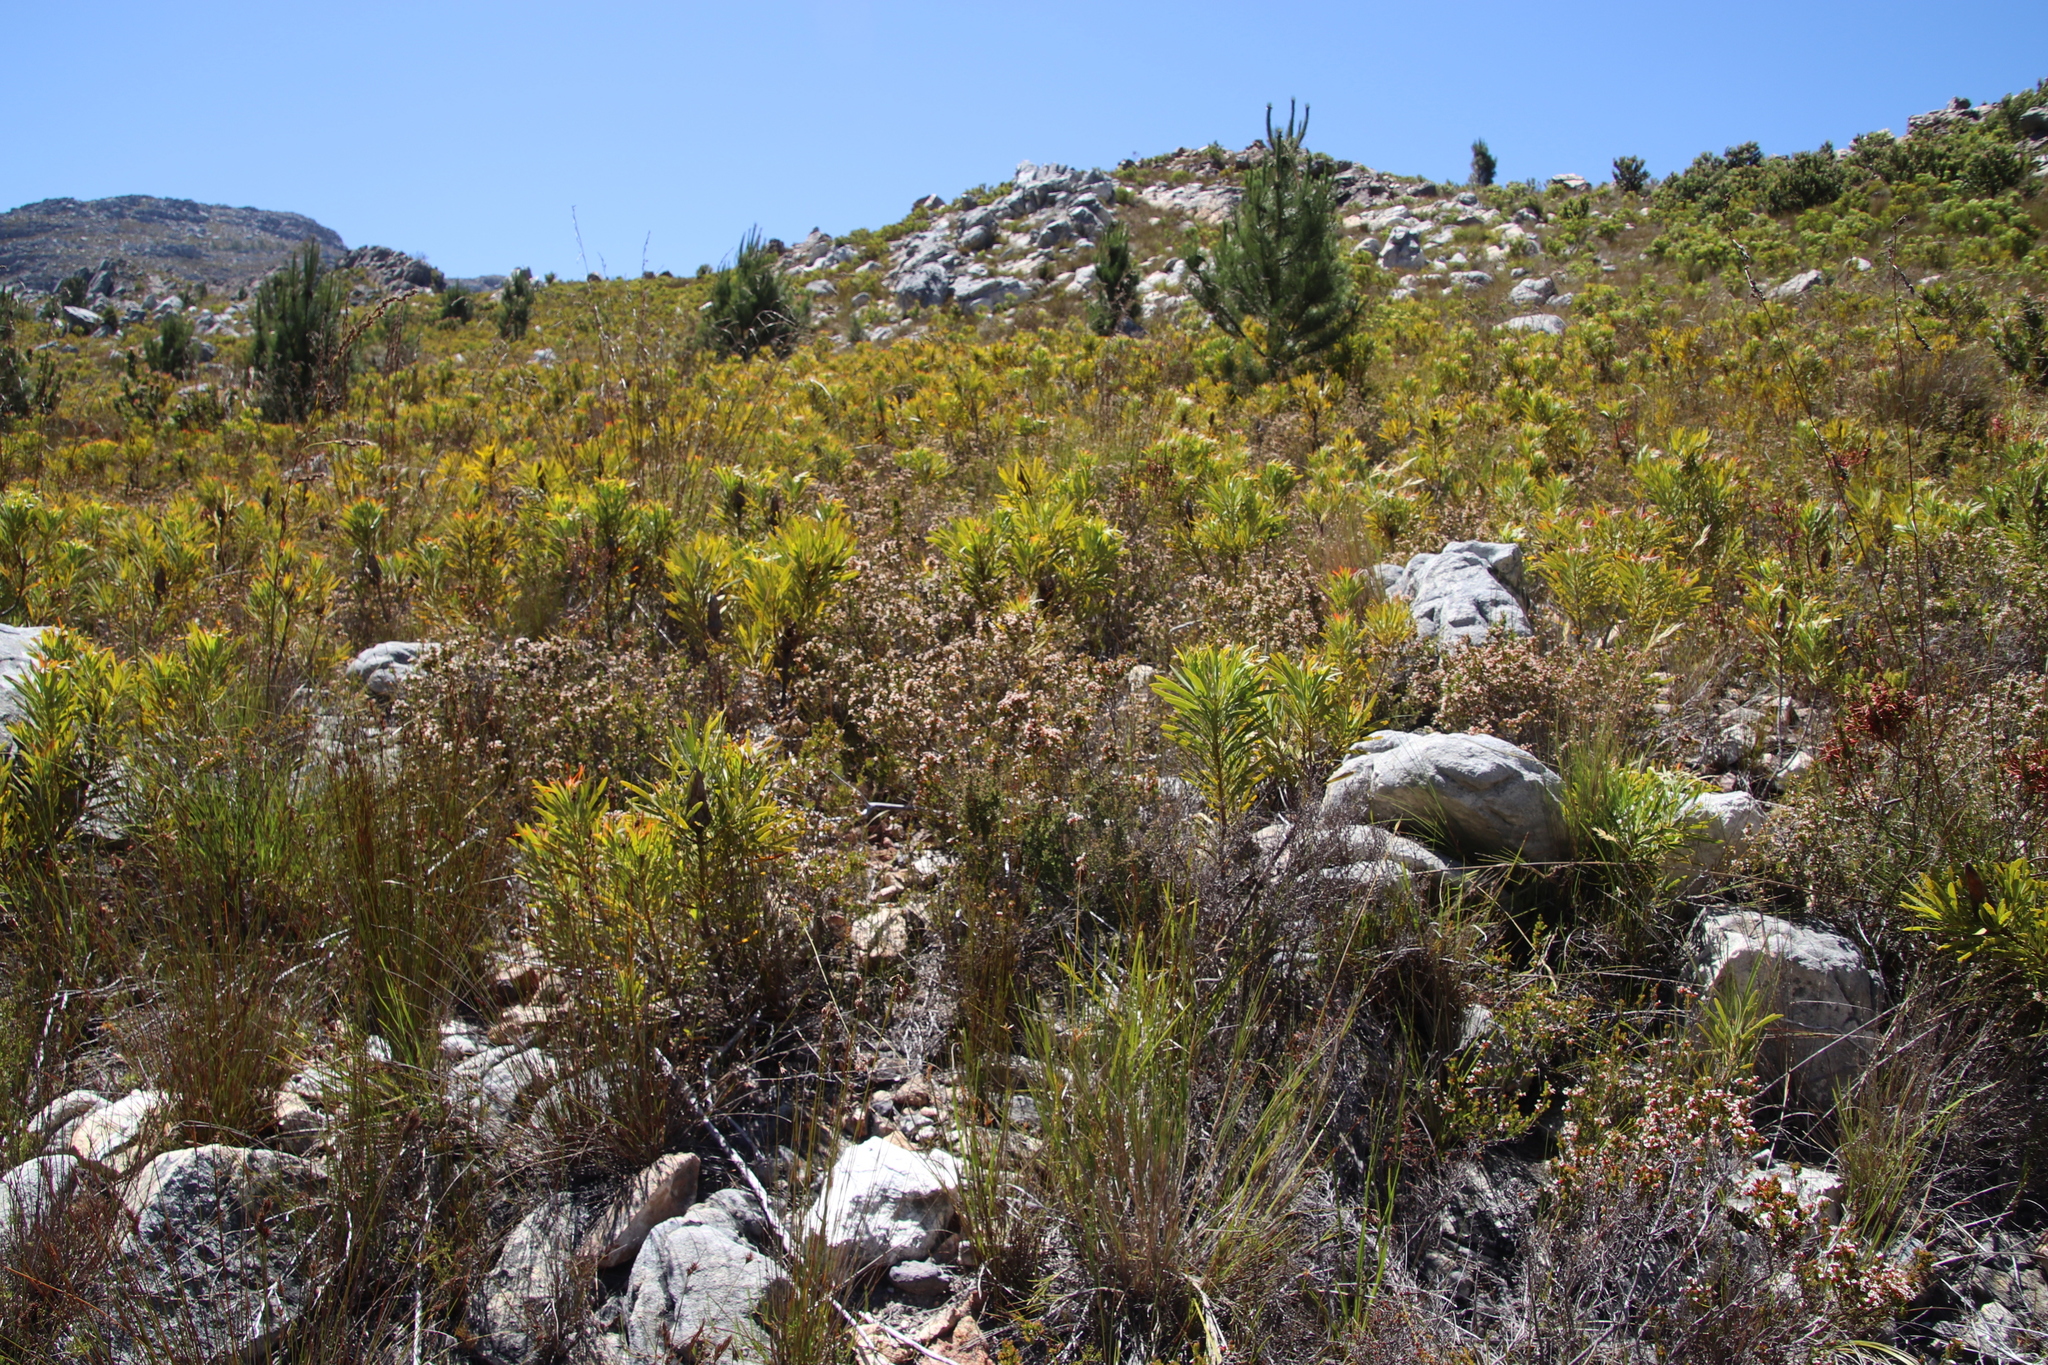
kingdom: Plantae
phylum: Tracheophyta
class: Magnoliopsida
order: Proteales
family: Proteaceae
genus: Protea
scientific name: Protea repens
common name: Sugarbush
